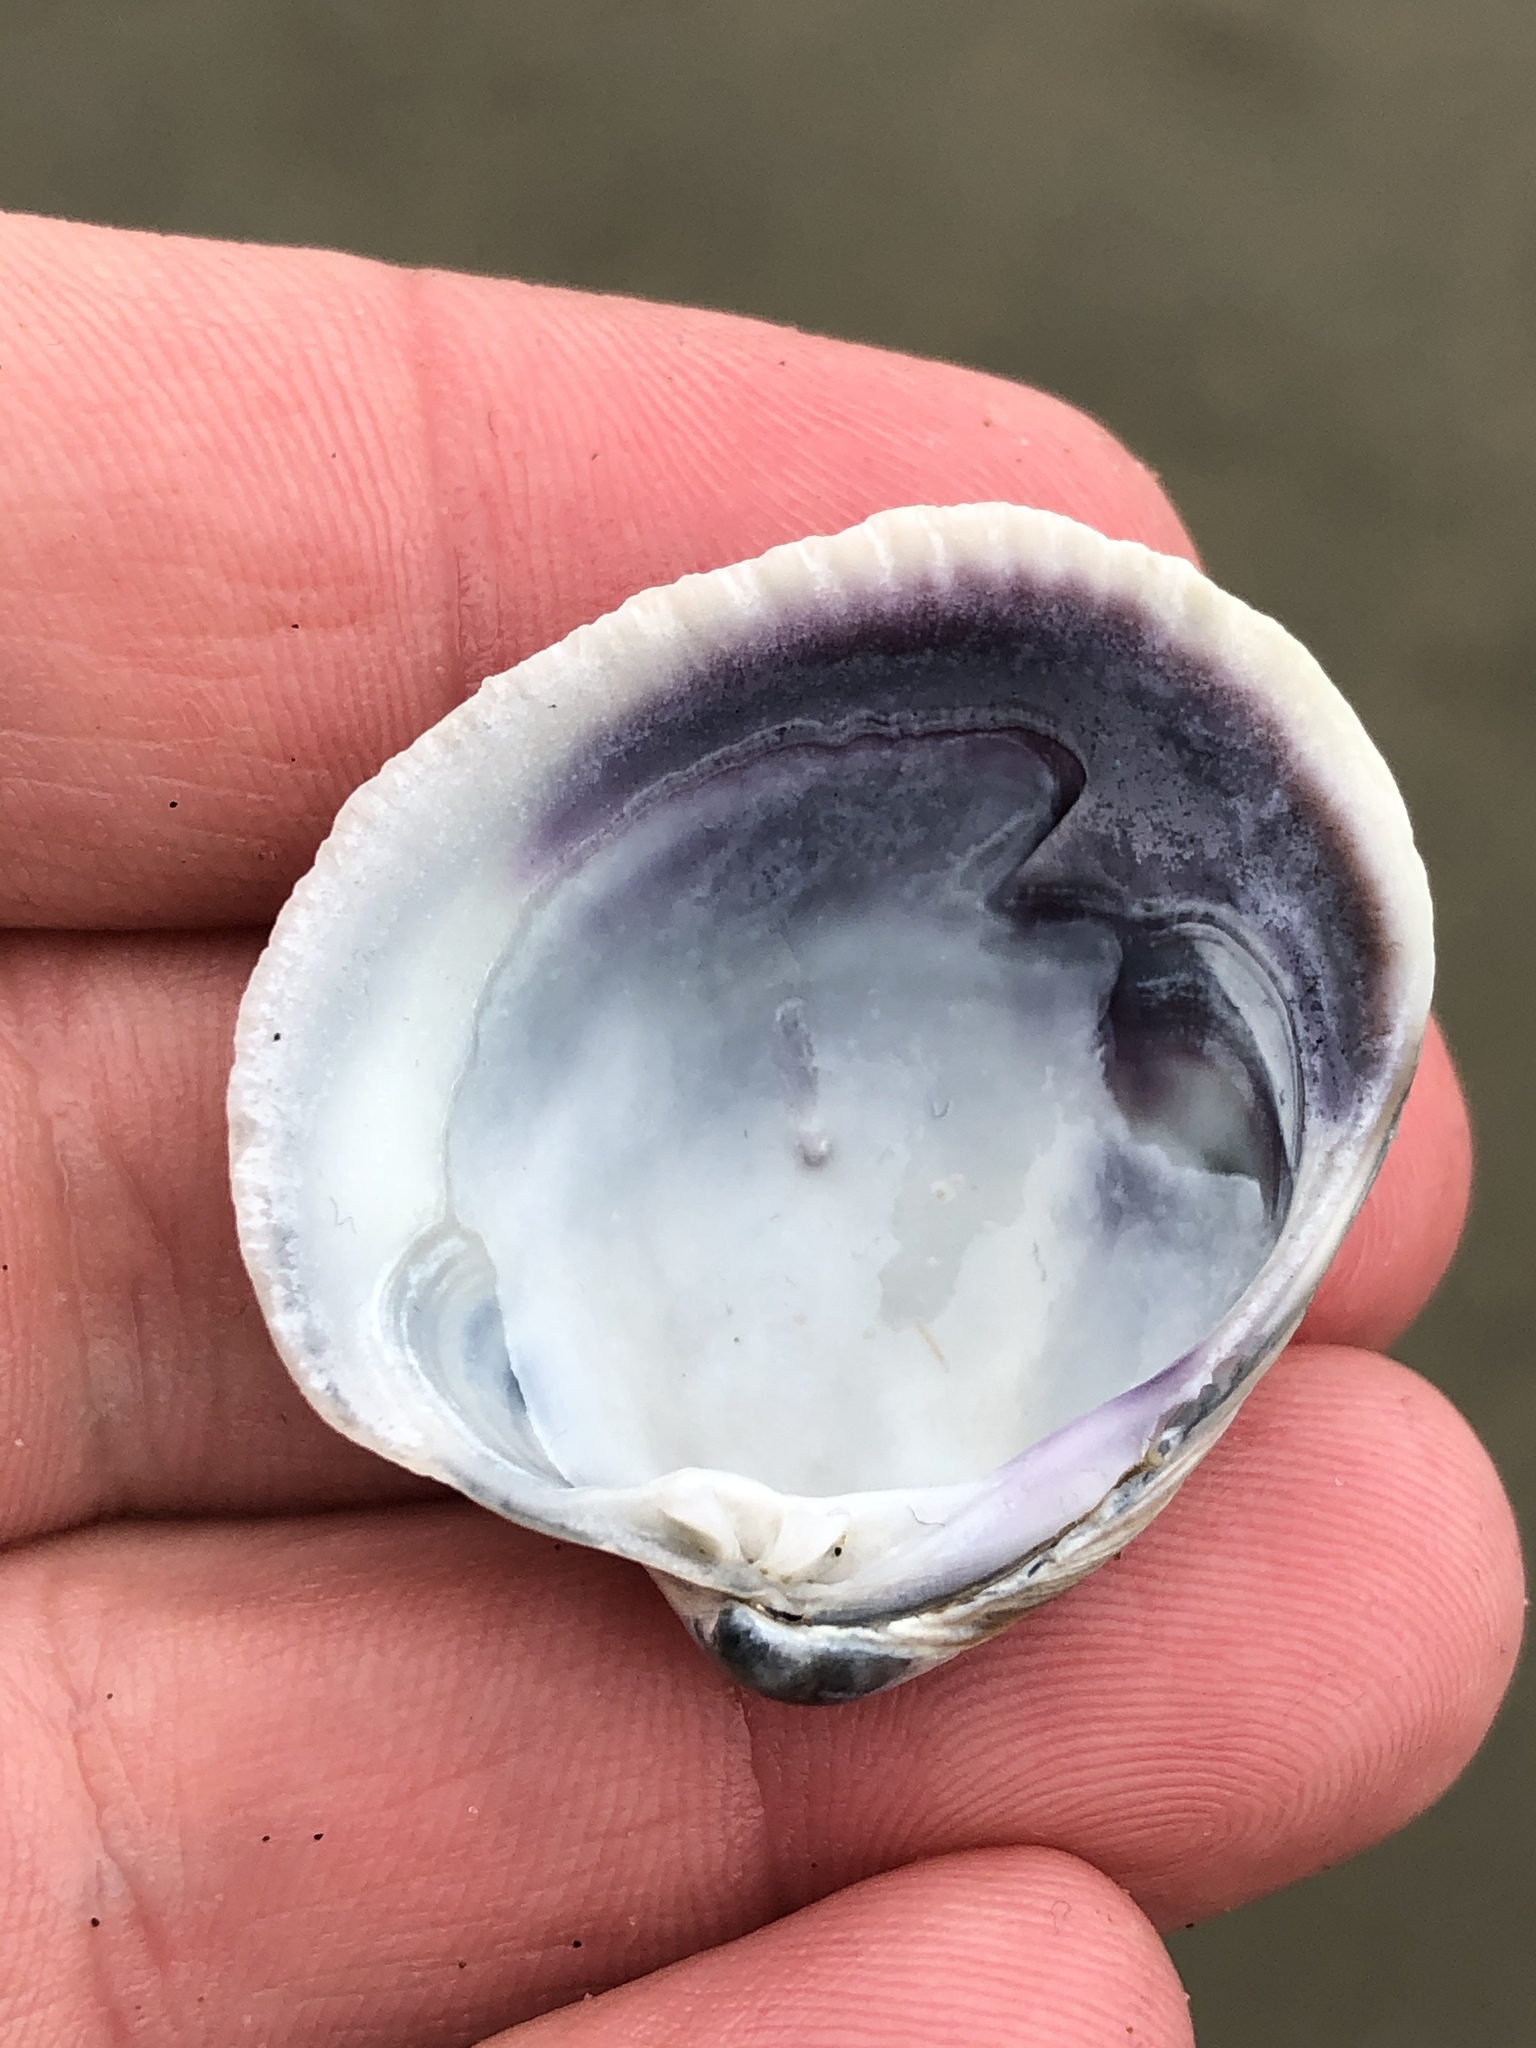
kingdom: Animalia
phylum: Mollusca
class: Bivalvia
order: Venerida
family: Veneridae
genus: Austrovenus
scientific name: Austrovenus stutchburyi
